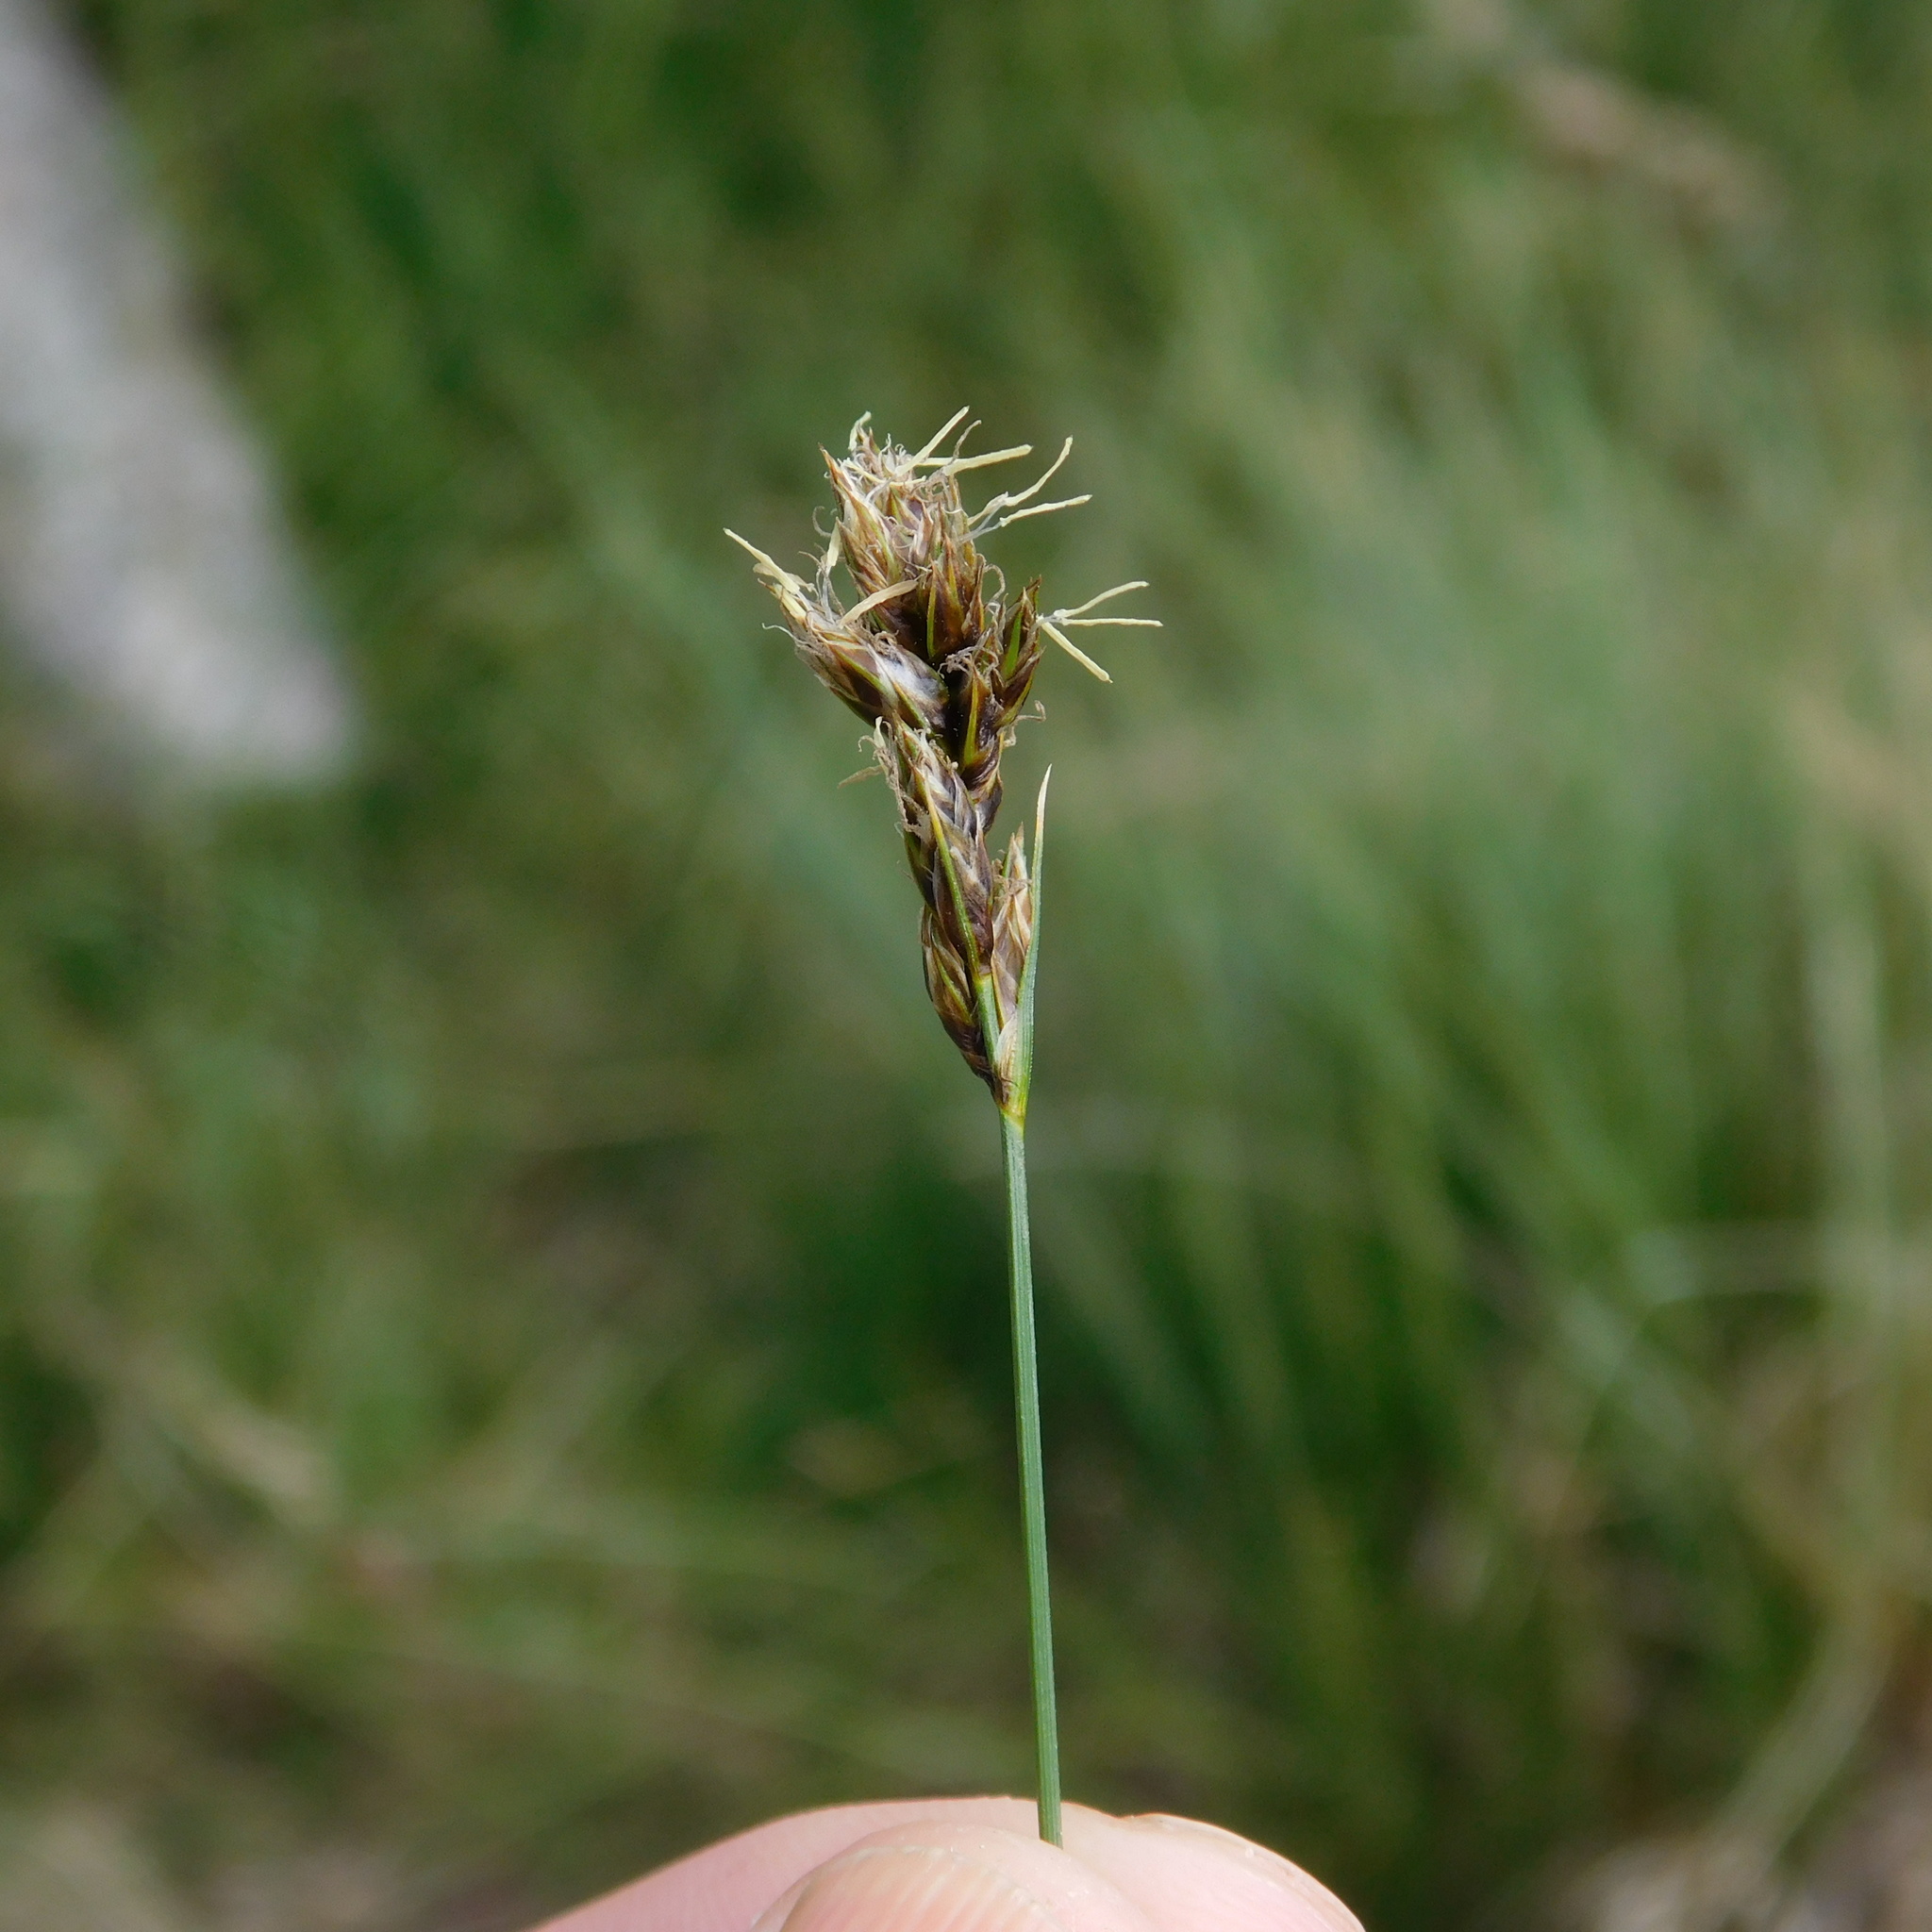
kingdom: Plantae
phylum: Tracheophyta
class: Liliopsida
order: Poales
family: Cyperaceae
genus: Carex
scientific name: Carex divisa
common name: Divided sedge
